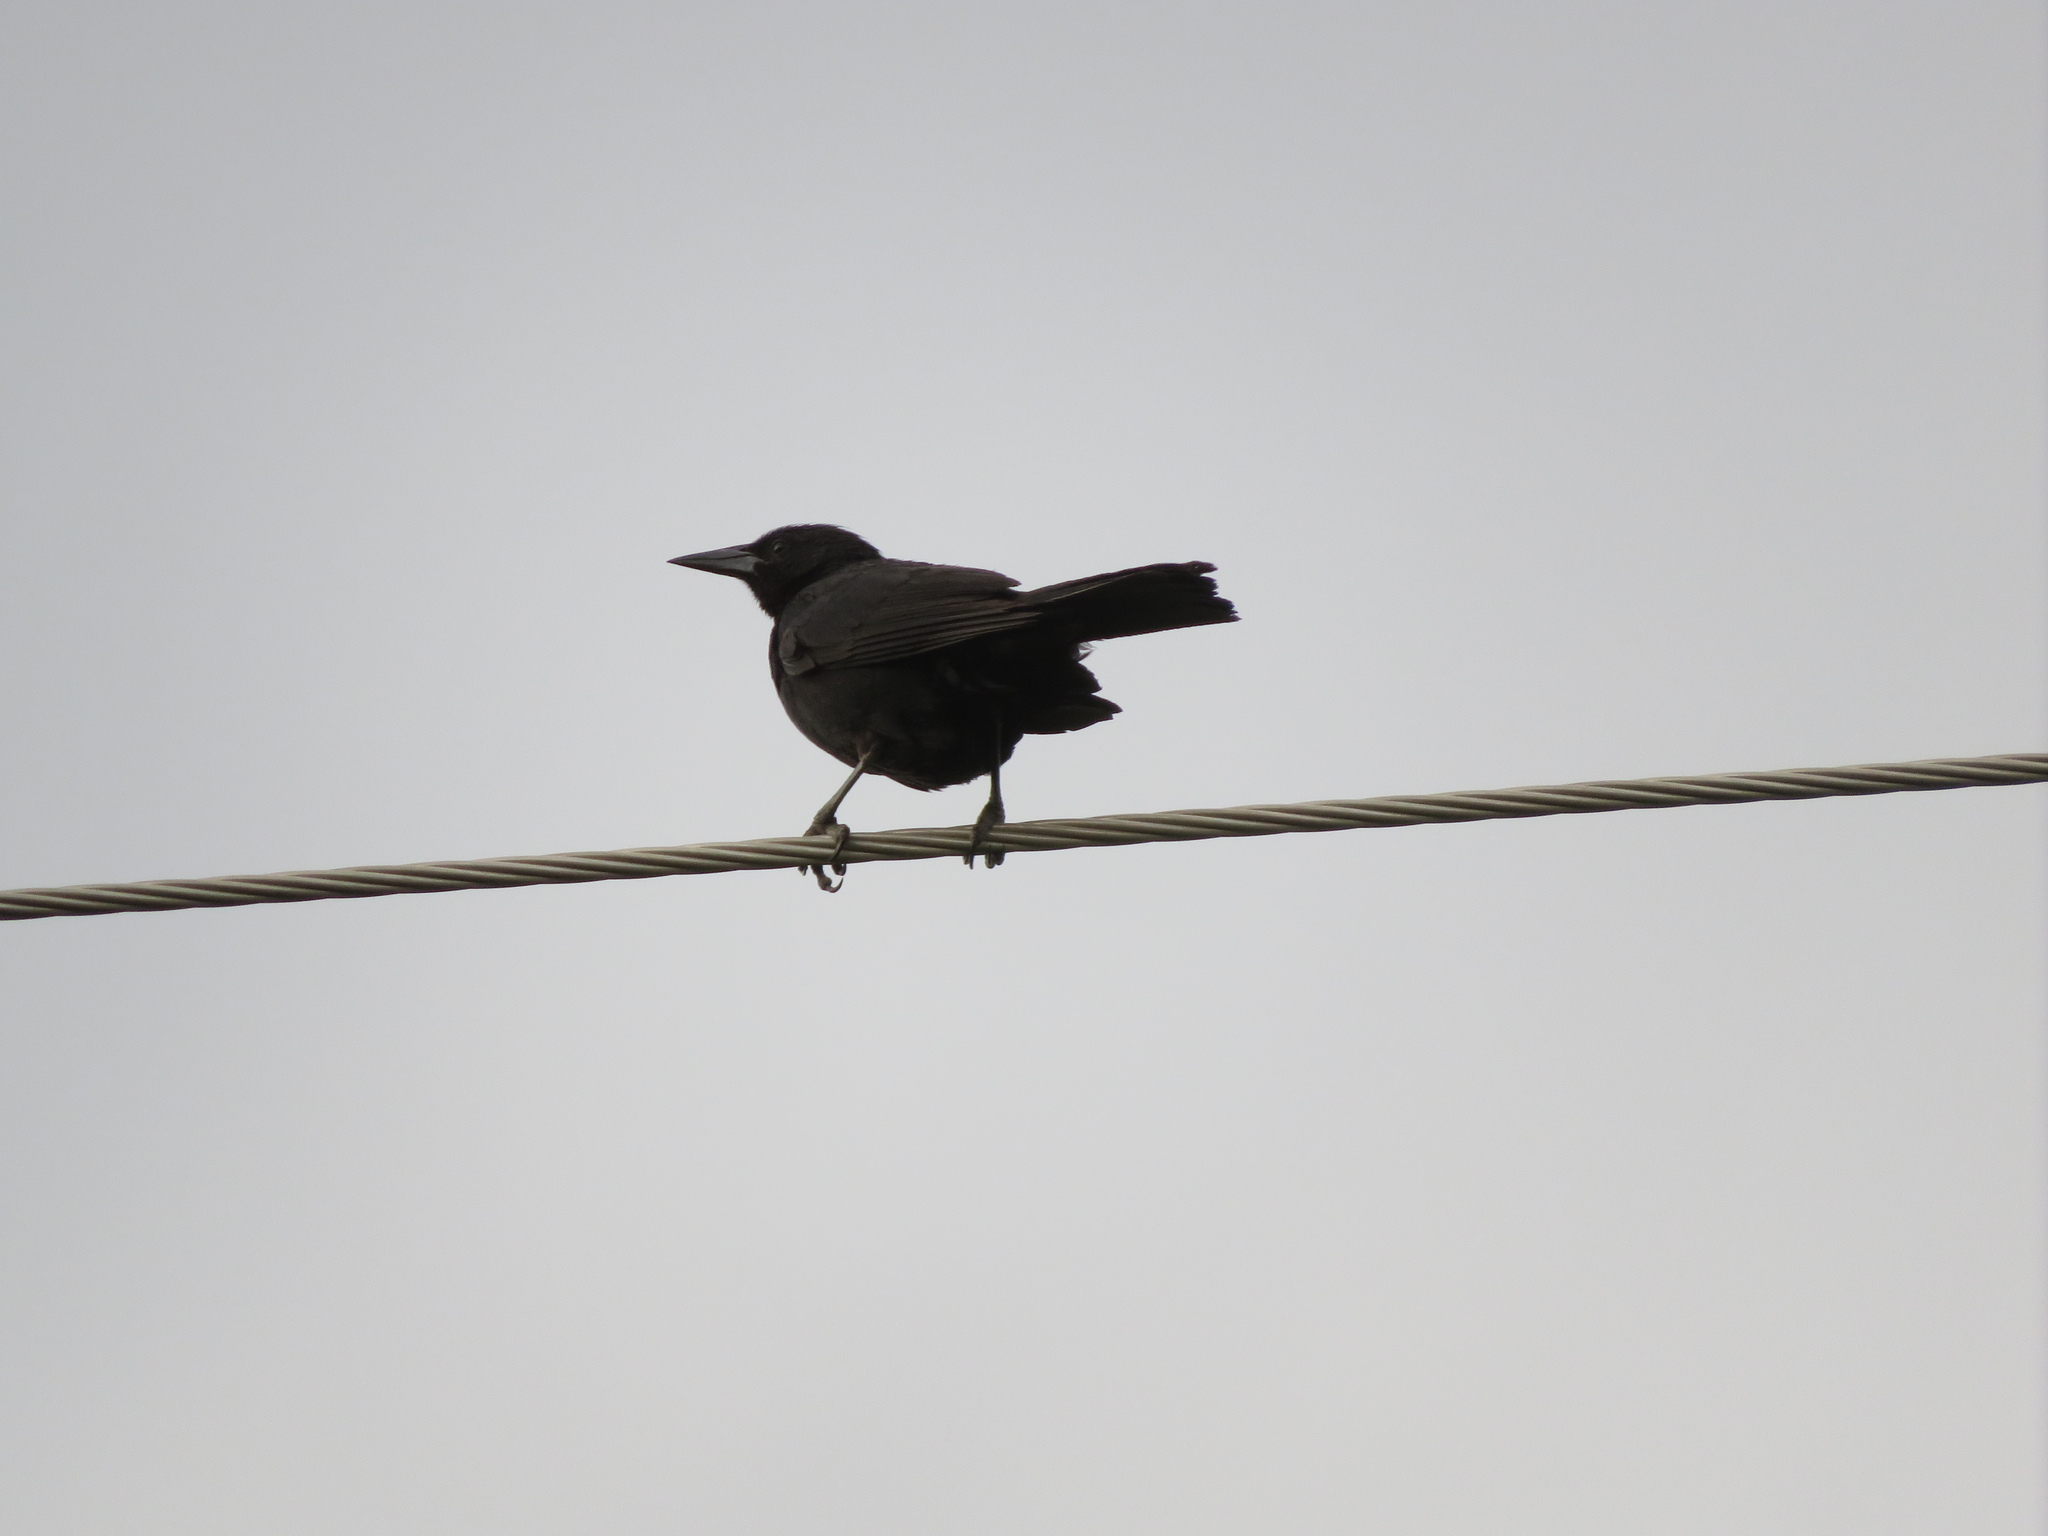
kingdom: Animalia
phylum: Chordata
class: Aves
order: Passeriformes
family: Icteridae
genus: Curaeus
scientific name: Curaeus curaeus
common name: Austral blackbird
